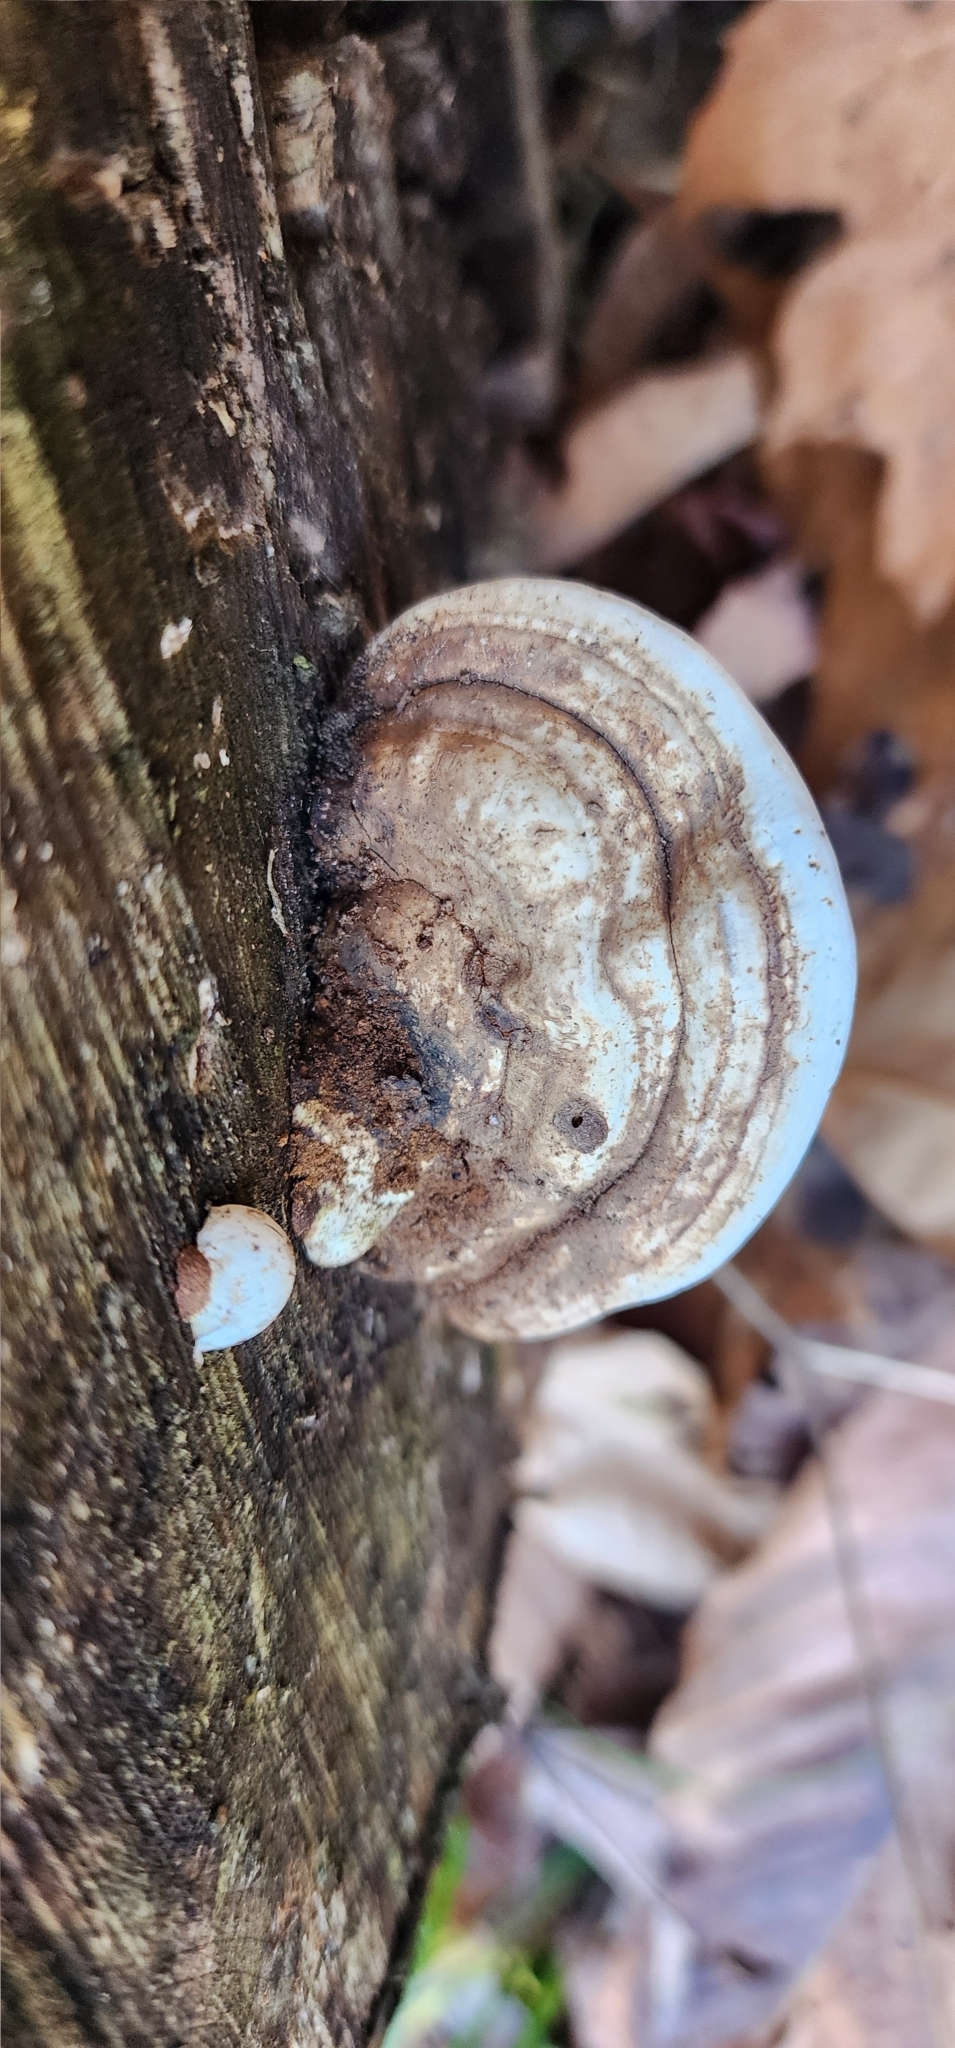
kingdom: Fungi
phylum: Basidiomycota
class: Agaricomycetes
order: Polyporales
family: Polyporaceae
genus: Ganoderma
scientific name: Ganoderma applanatum
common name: Artist's bracket
